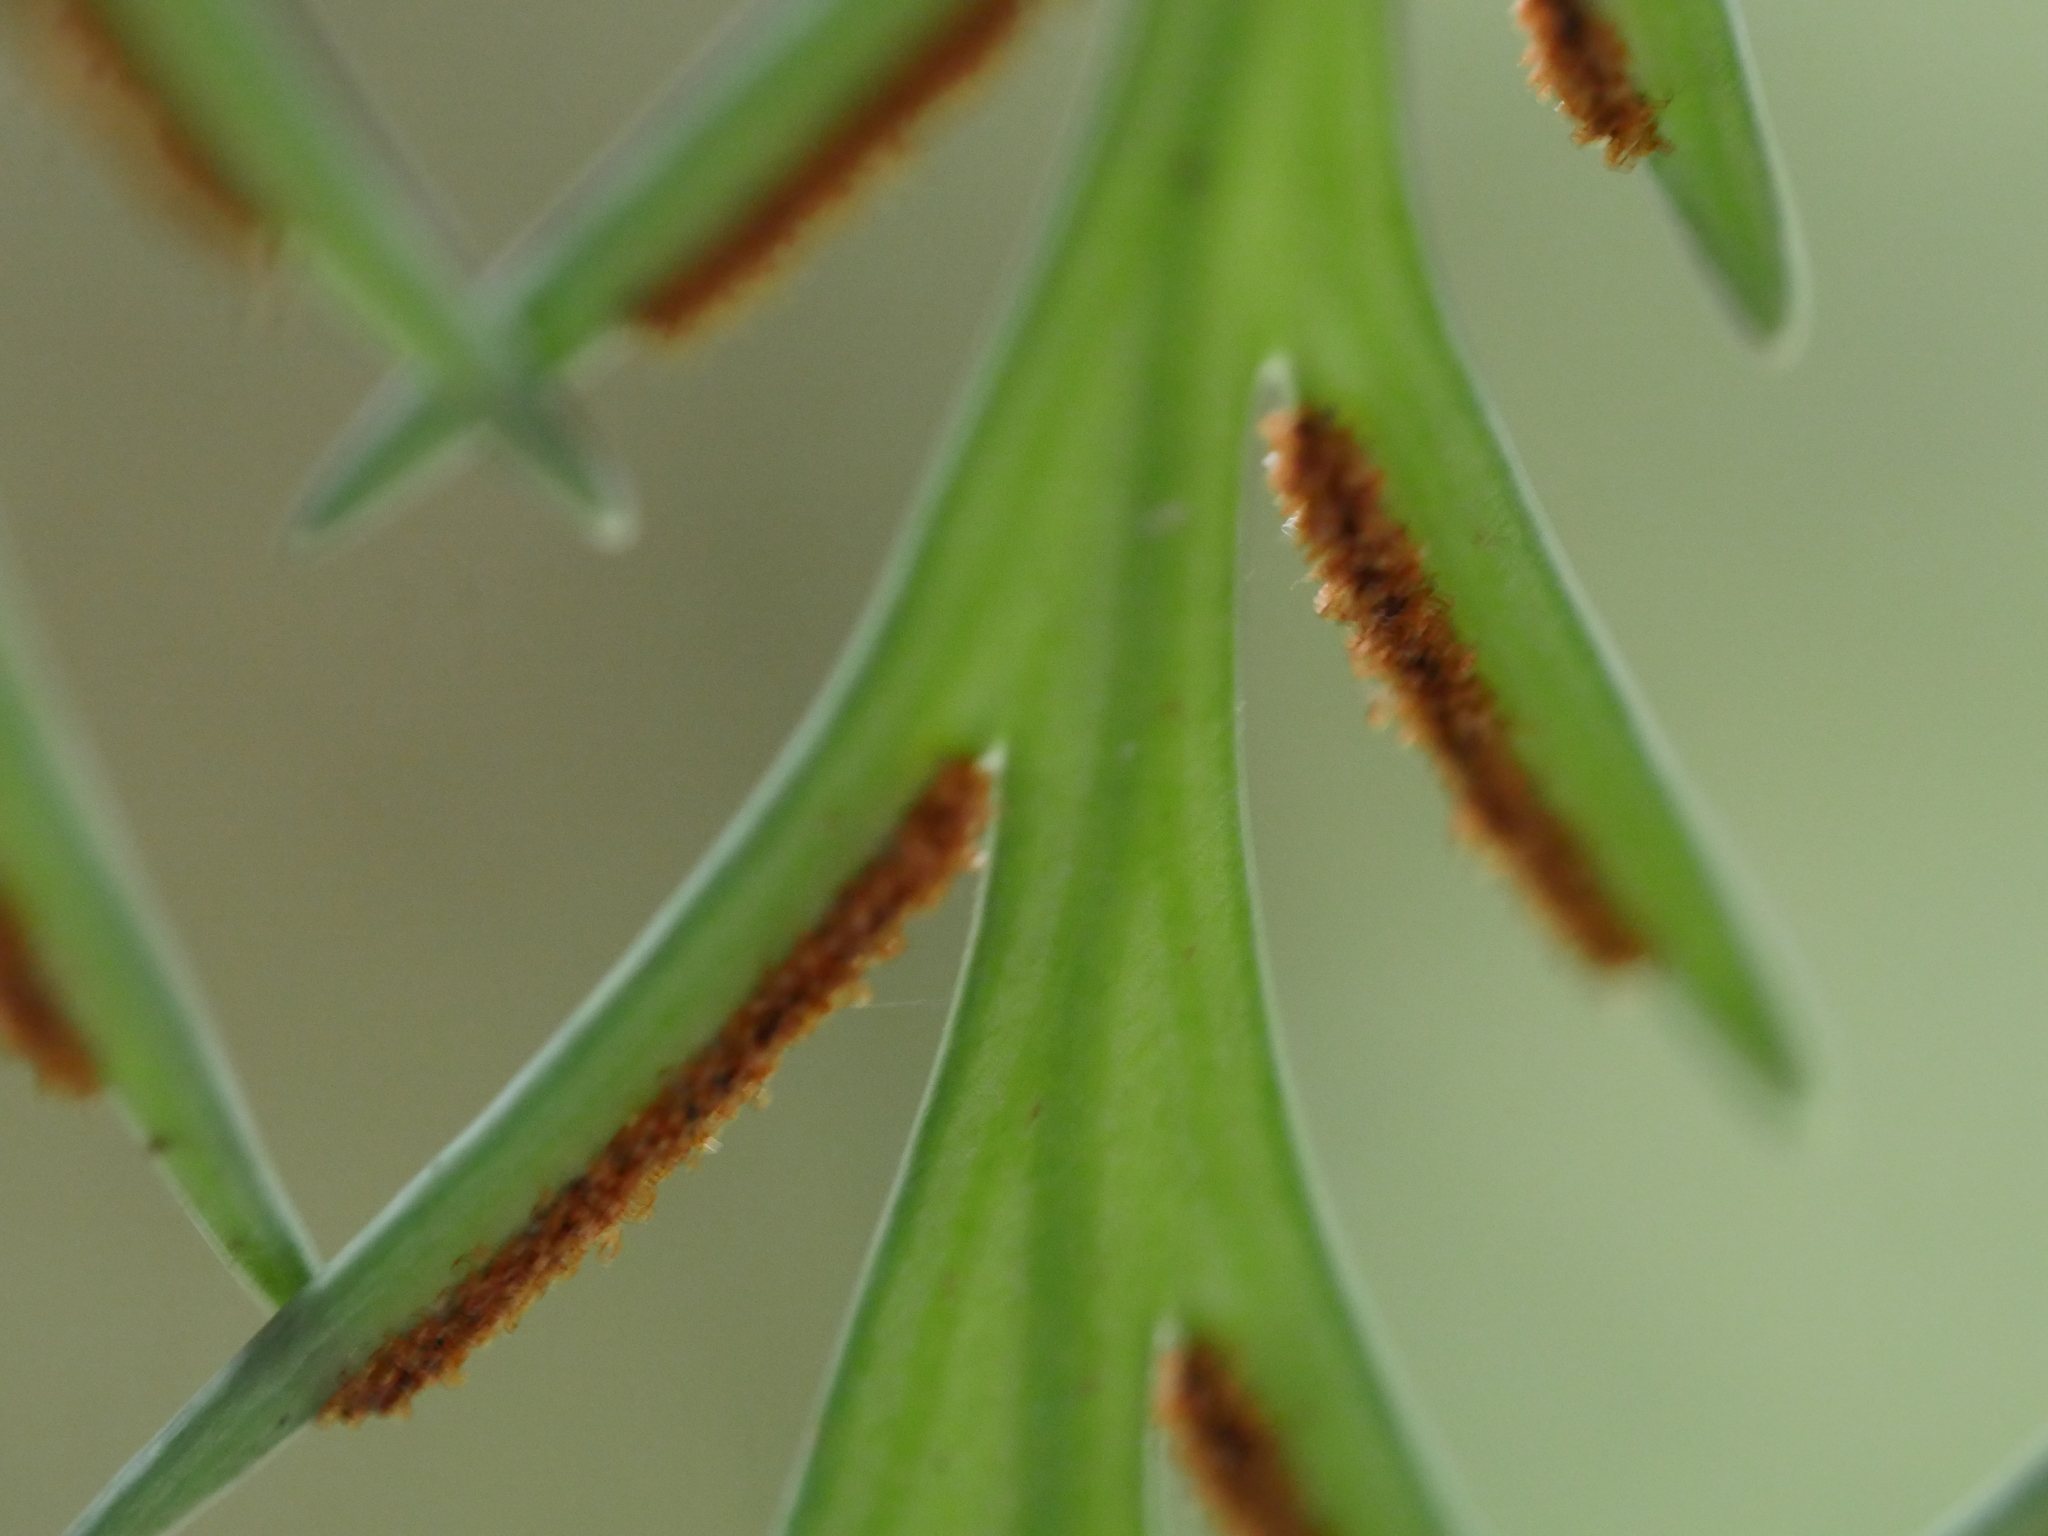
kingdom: Plantae
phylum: Tracheophyta
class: Polypodiopsida
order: Polypodiales
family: Aspleniaceae
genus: Asplenium
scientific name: Asplenium flaccidum
